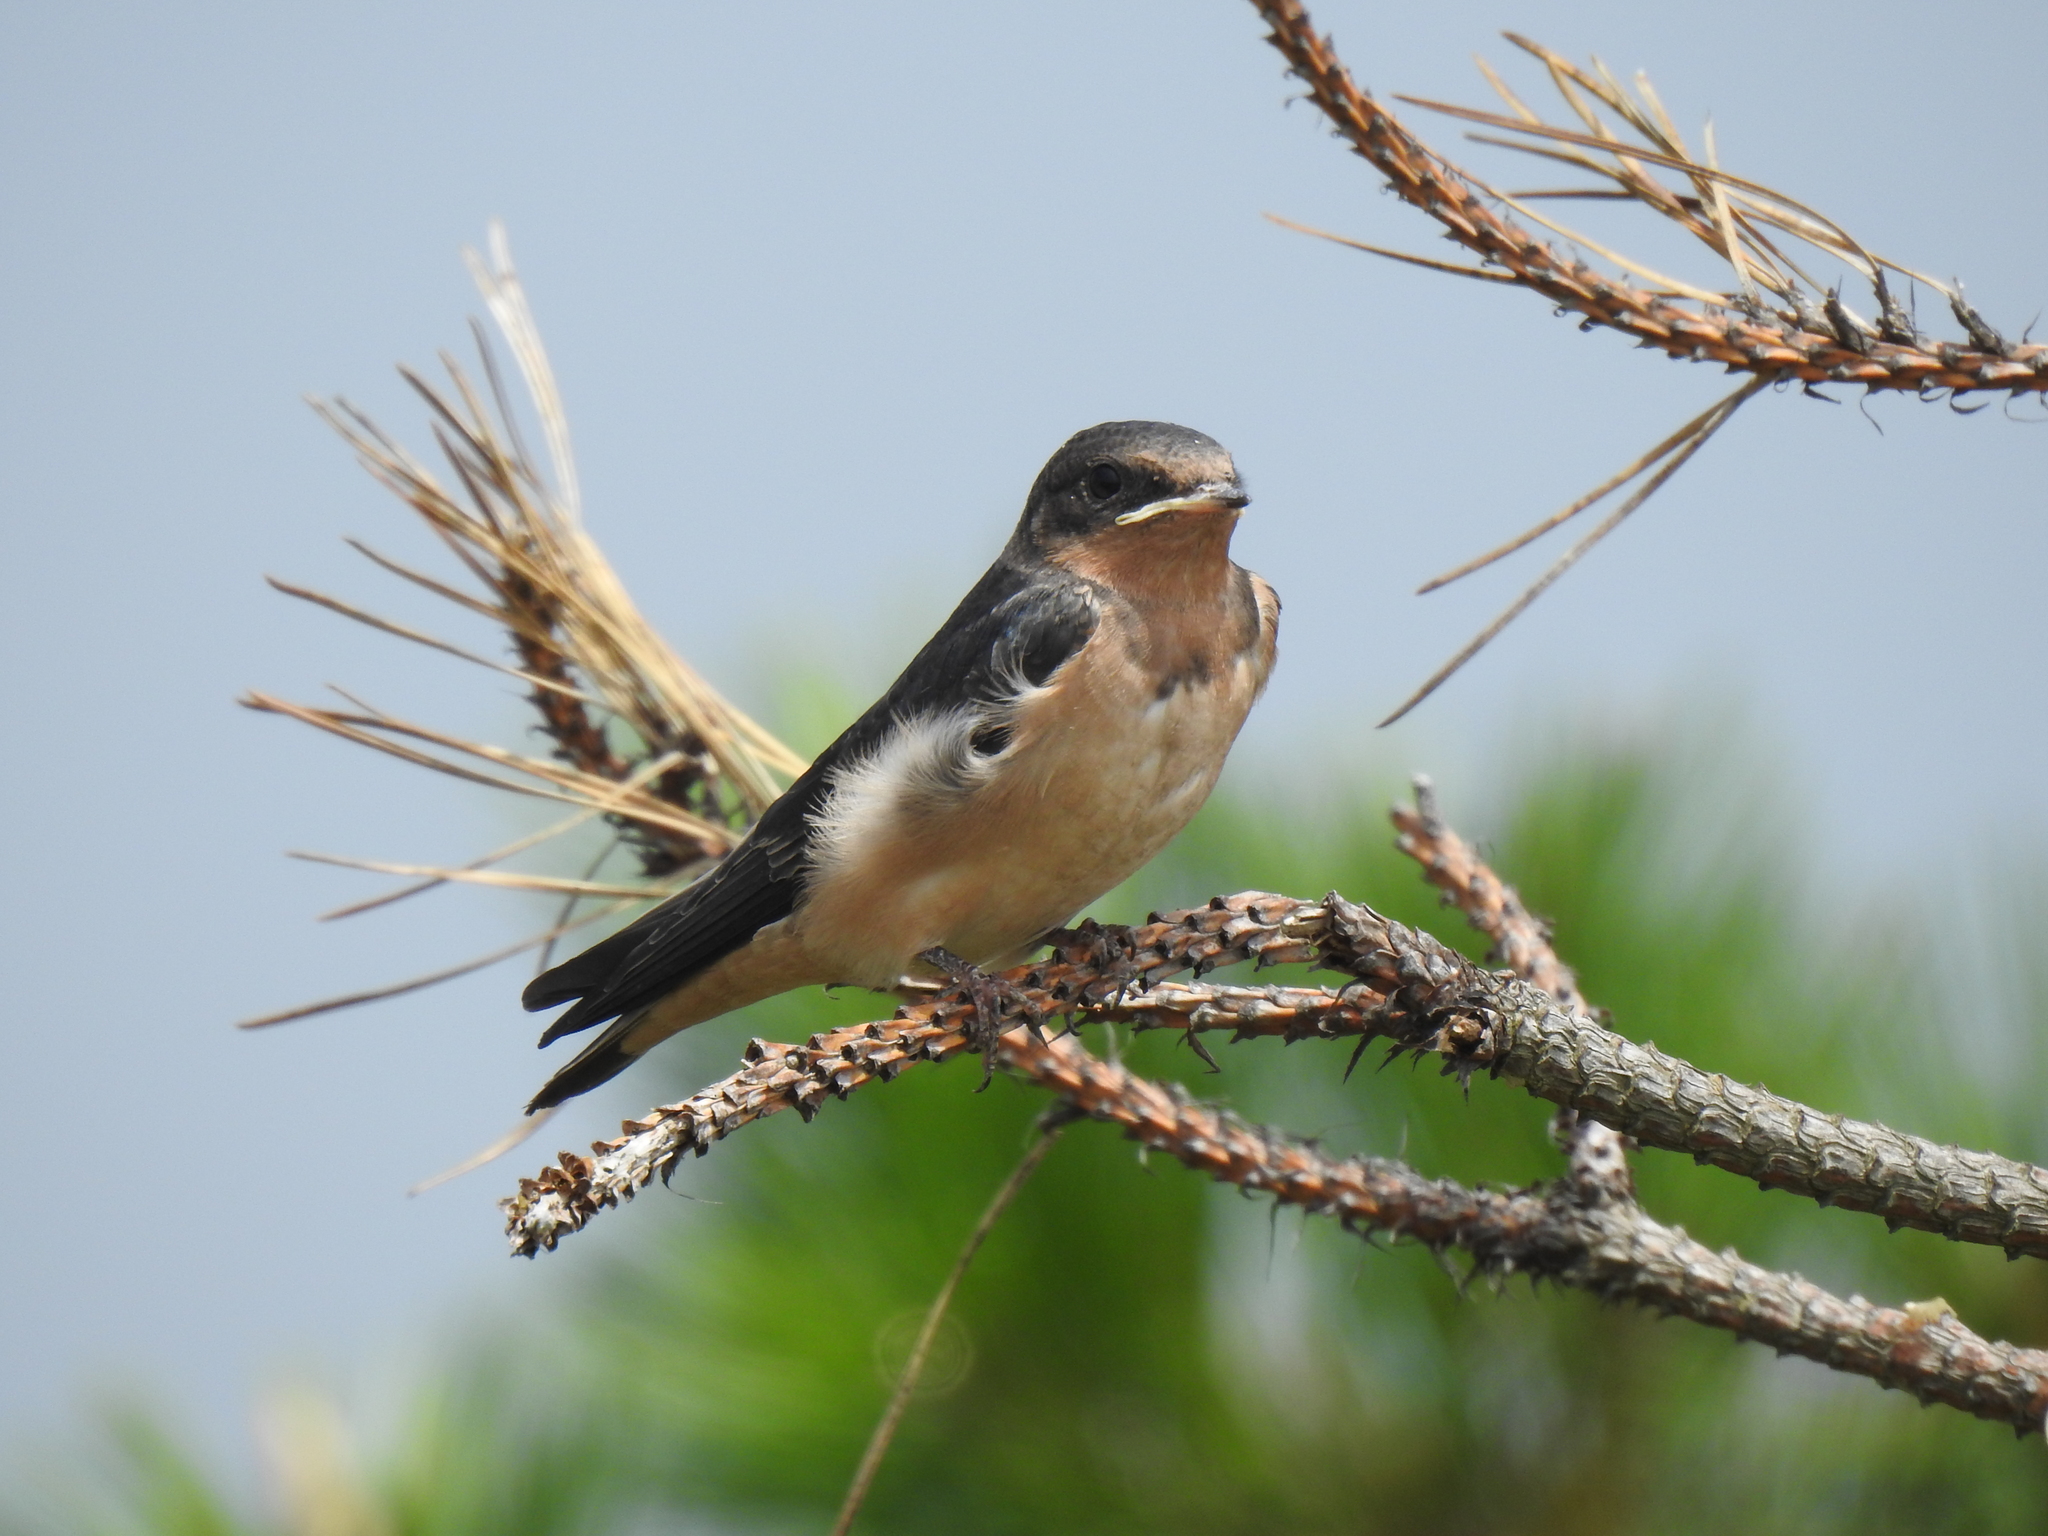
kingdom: Animalia
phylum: Chordata
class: Aves
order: Passeriformes
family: Hirundinidae
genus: Hirundo
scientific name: Hirundo rustica
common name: Barn swallow
